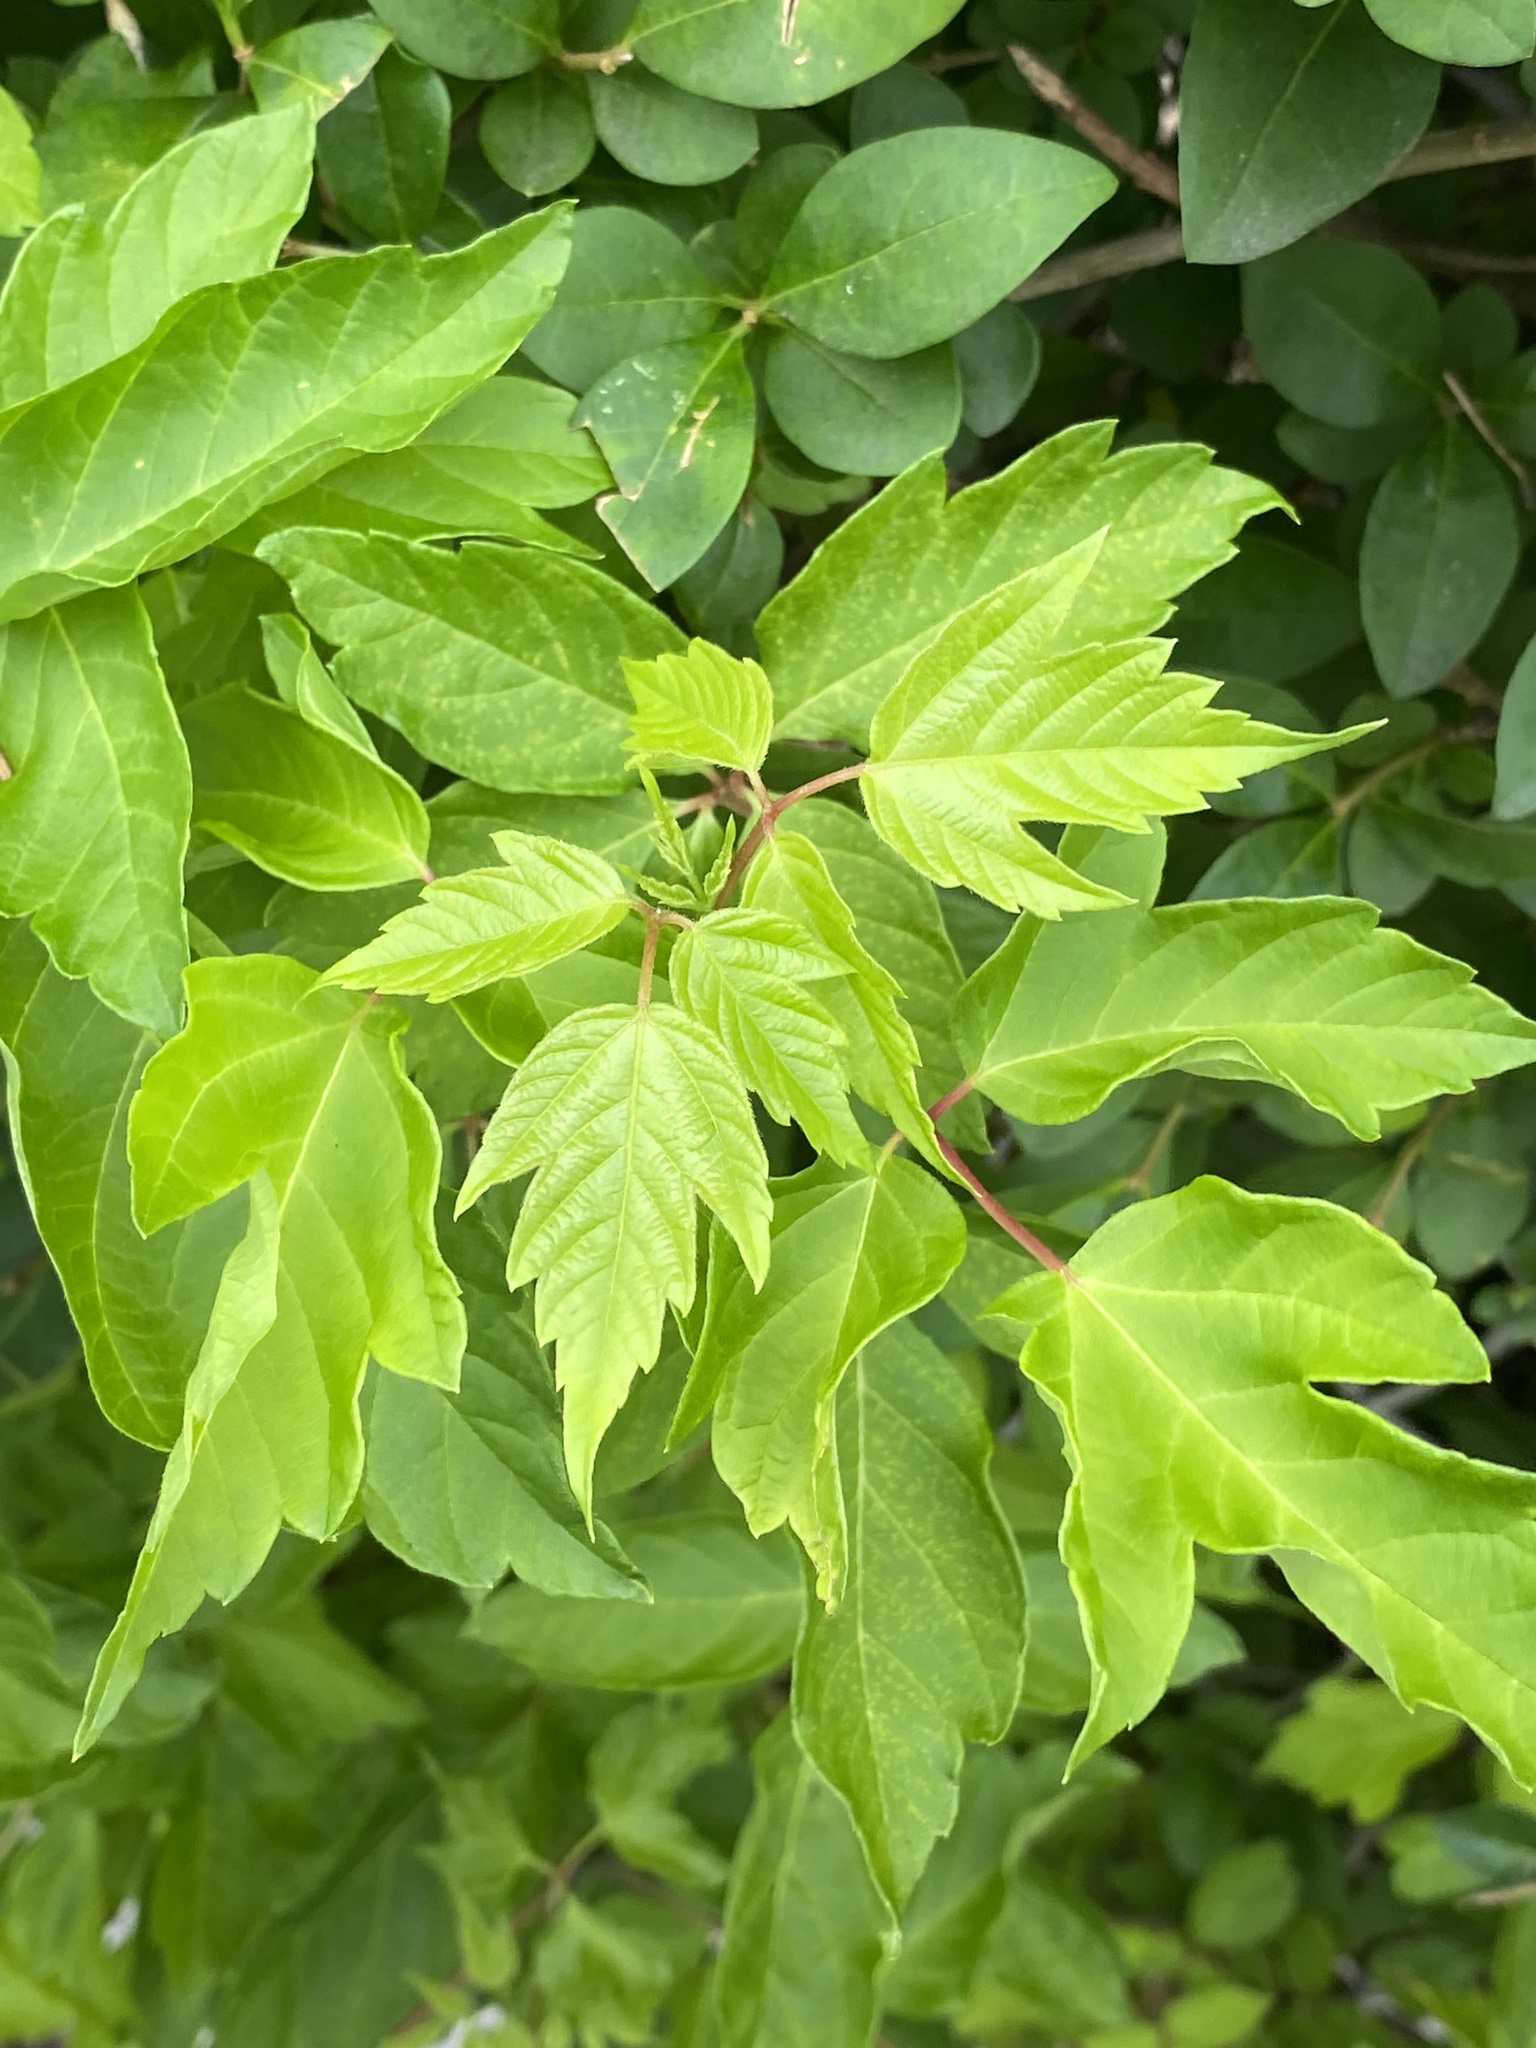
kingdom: Plantae
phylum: Tracheophyta
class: Magnoliopsida
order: Sapindales
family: Sapindaceae
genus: Acer
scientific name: Acer negundo
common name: Ashleaf maple
